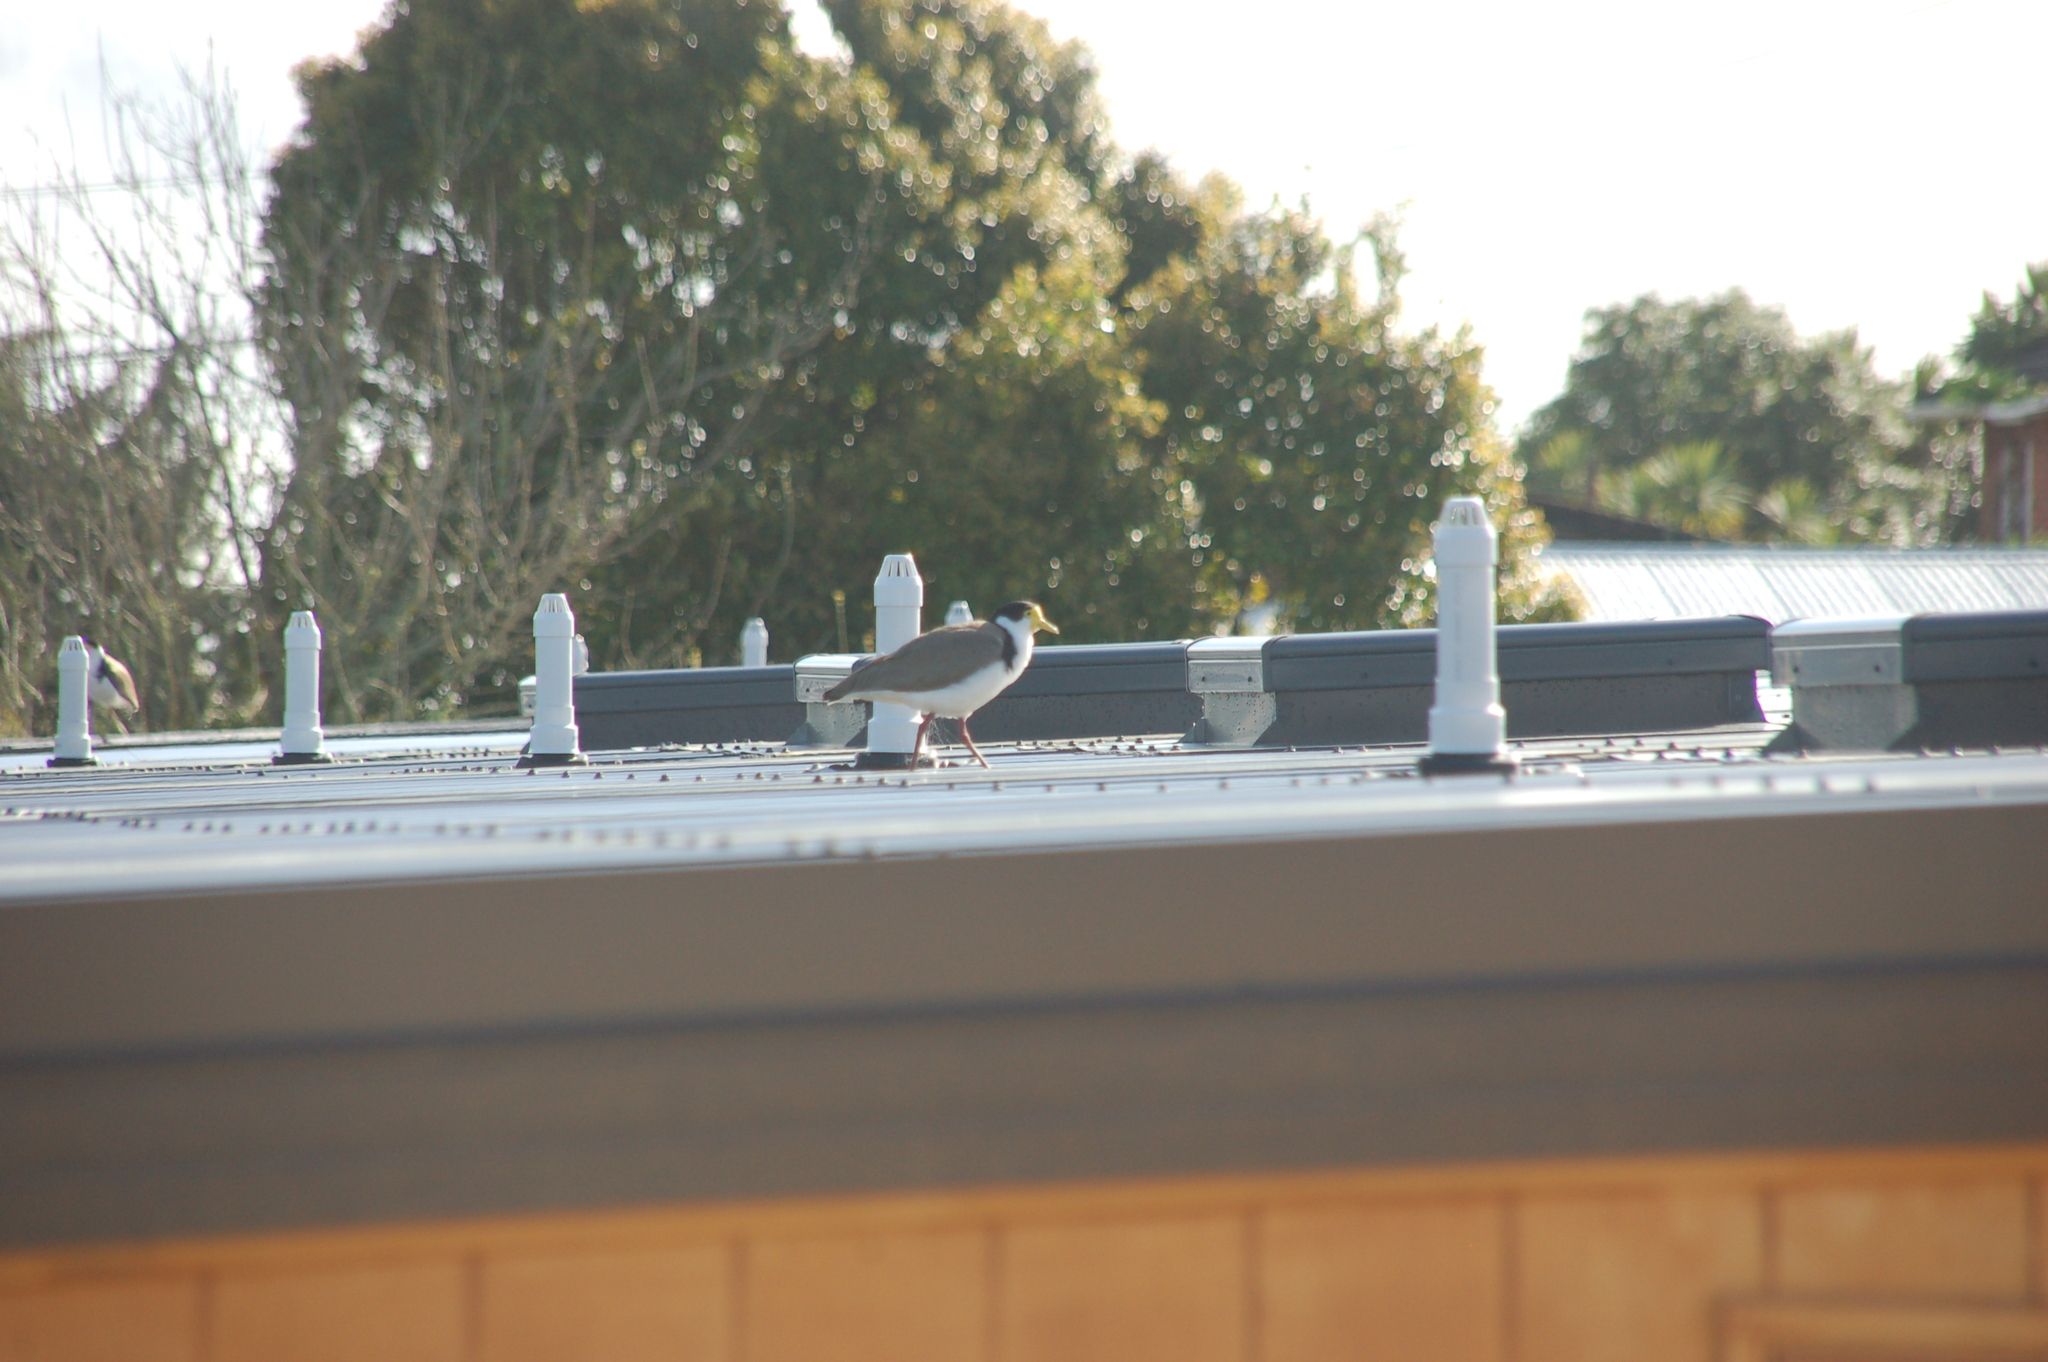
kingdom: Animalia
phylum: Chordata
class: Aves
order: Charadriiformes
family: Charadriidae
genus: Vanellus
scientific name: Vanellus miles
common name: Masked lapwing
